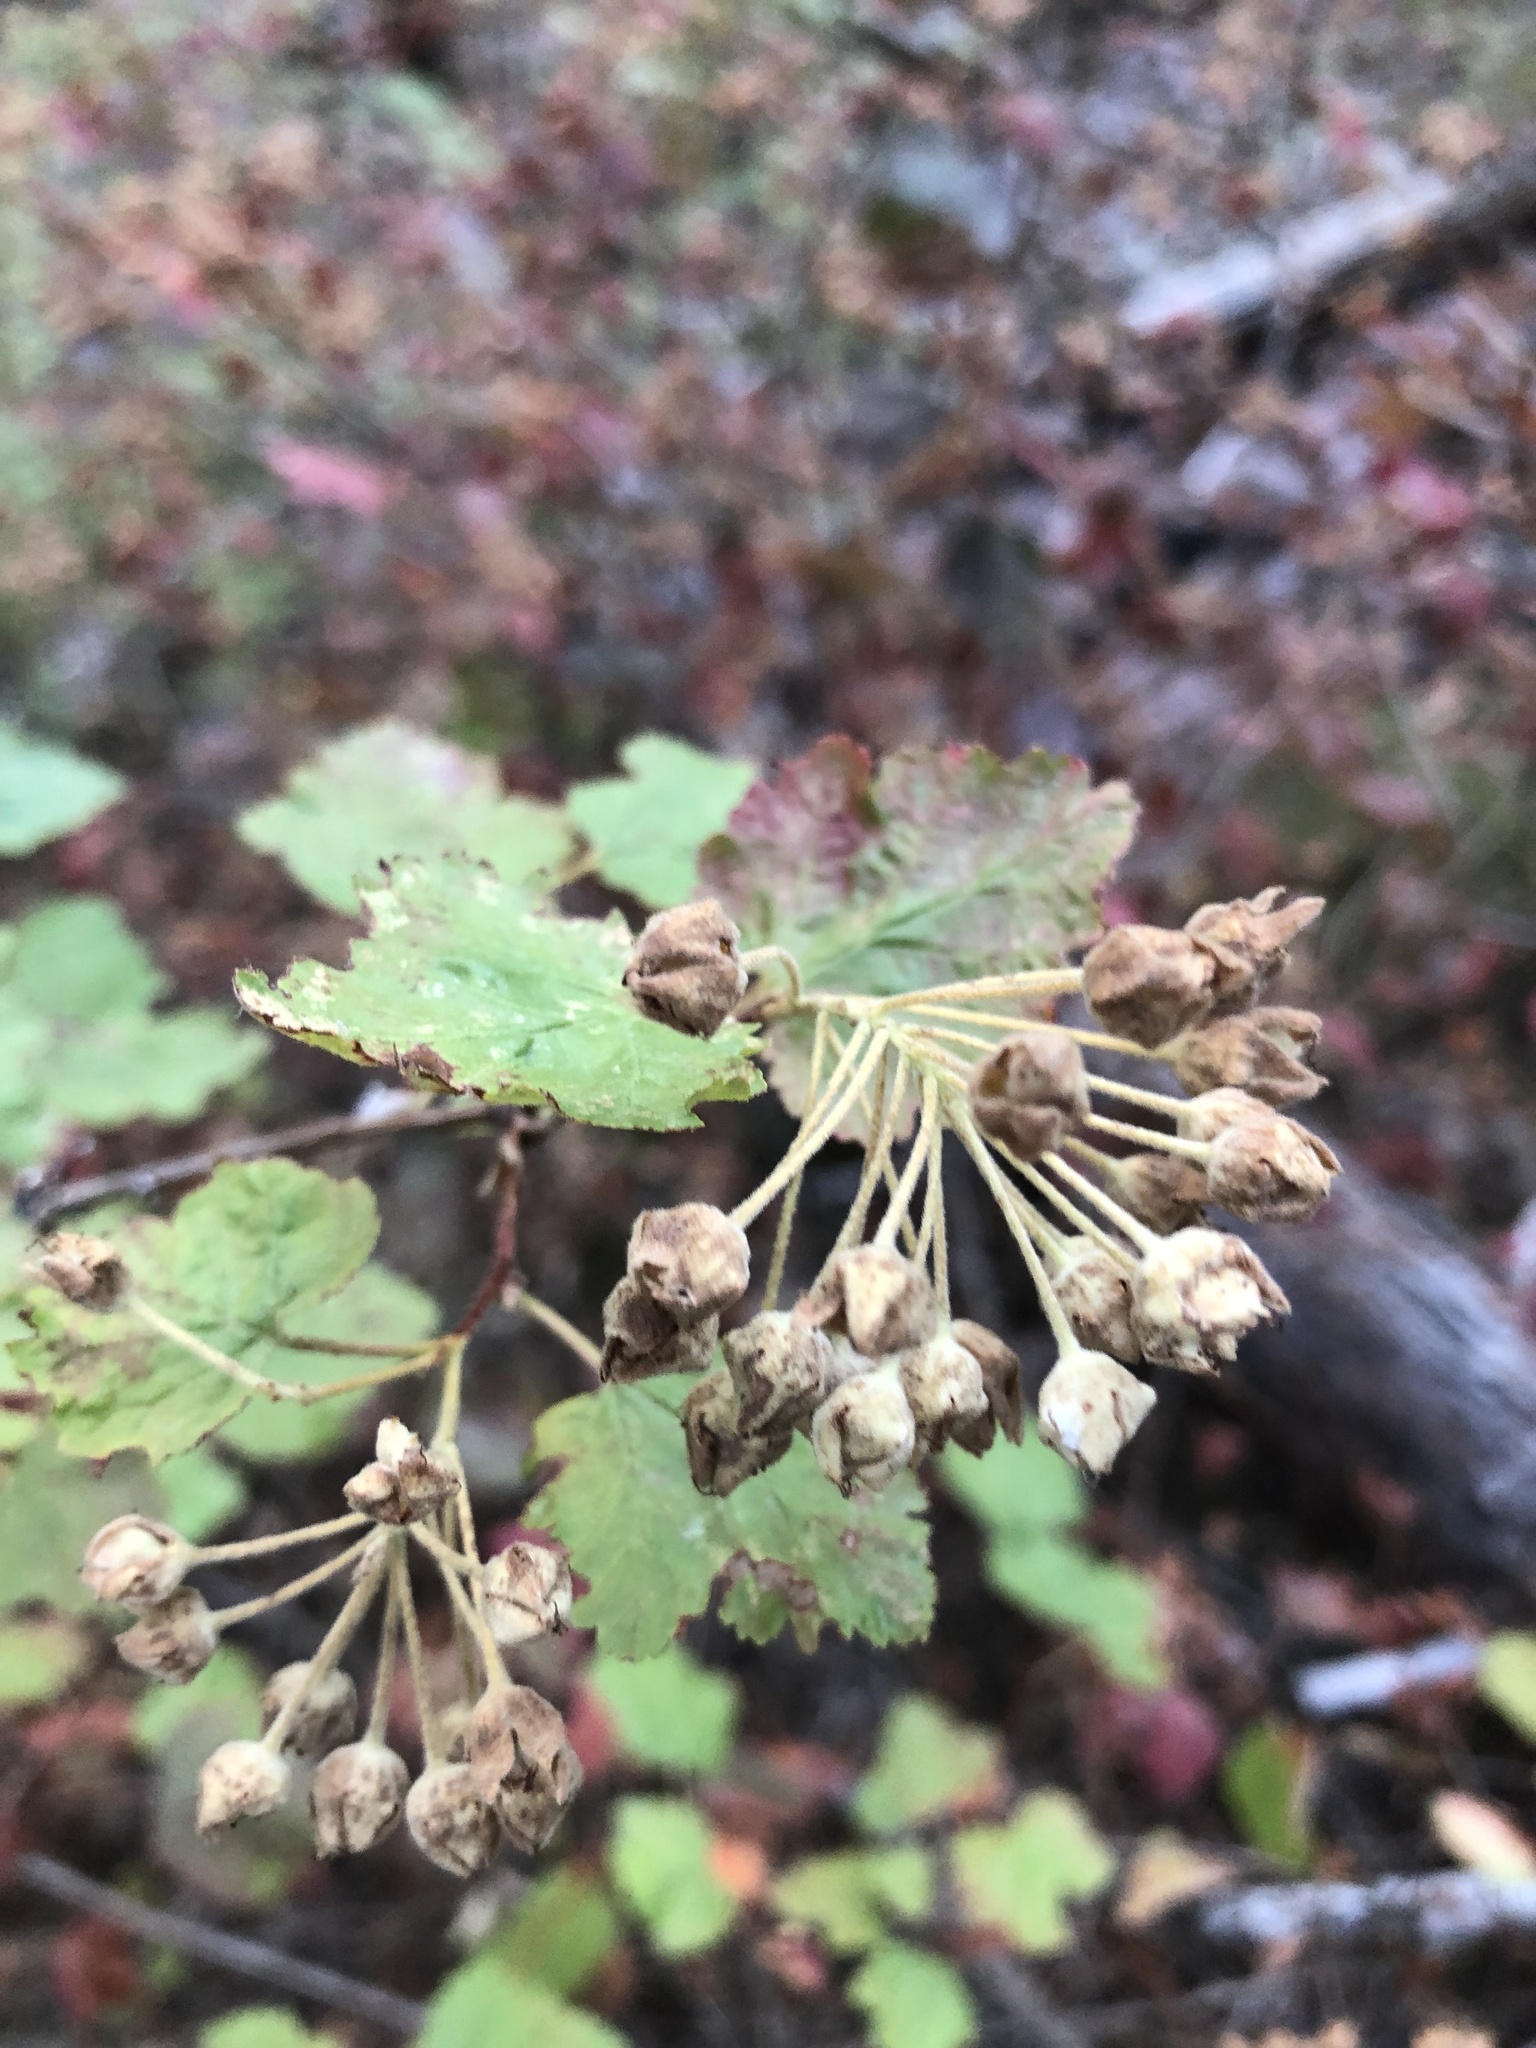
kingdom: Plantae
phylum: Tracheophyta
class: Magnoliopsida
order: Rosales
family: Rosaceae
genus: Physocarpus
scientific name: Physocarpus malvaceus
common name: Mallow ninebark
